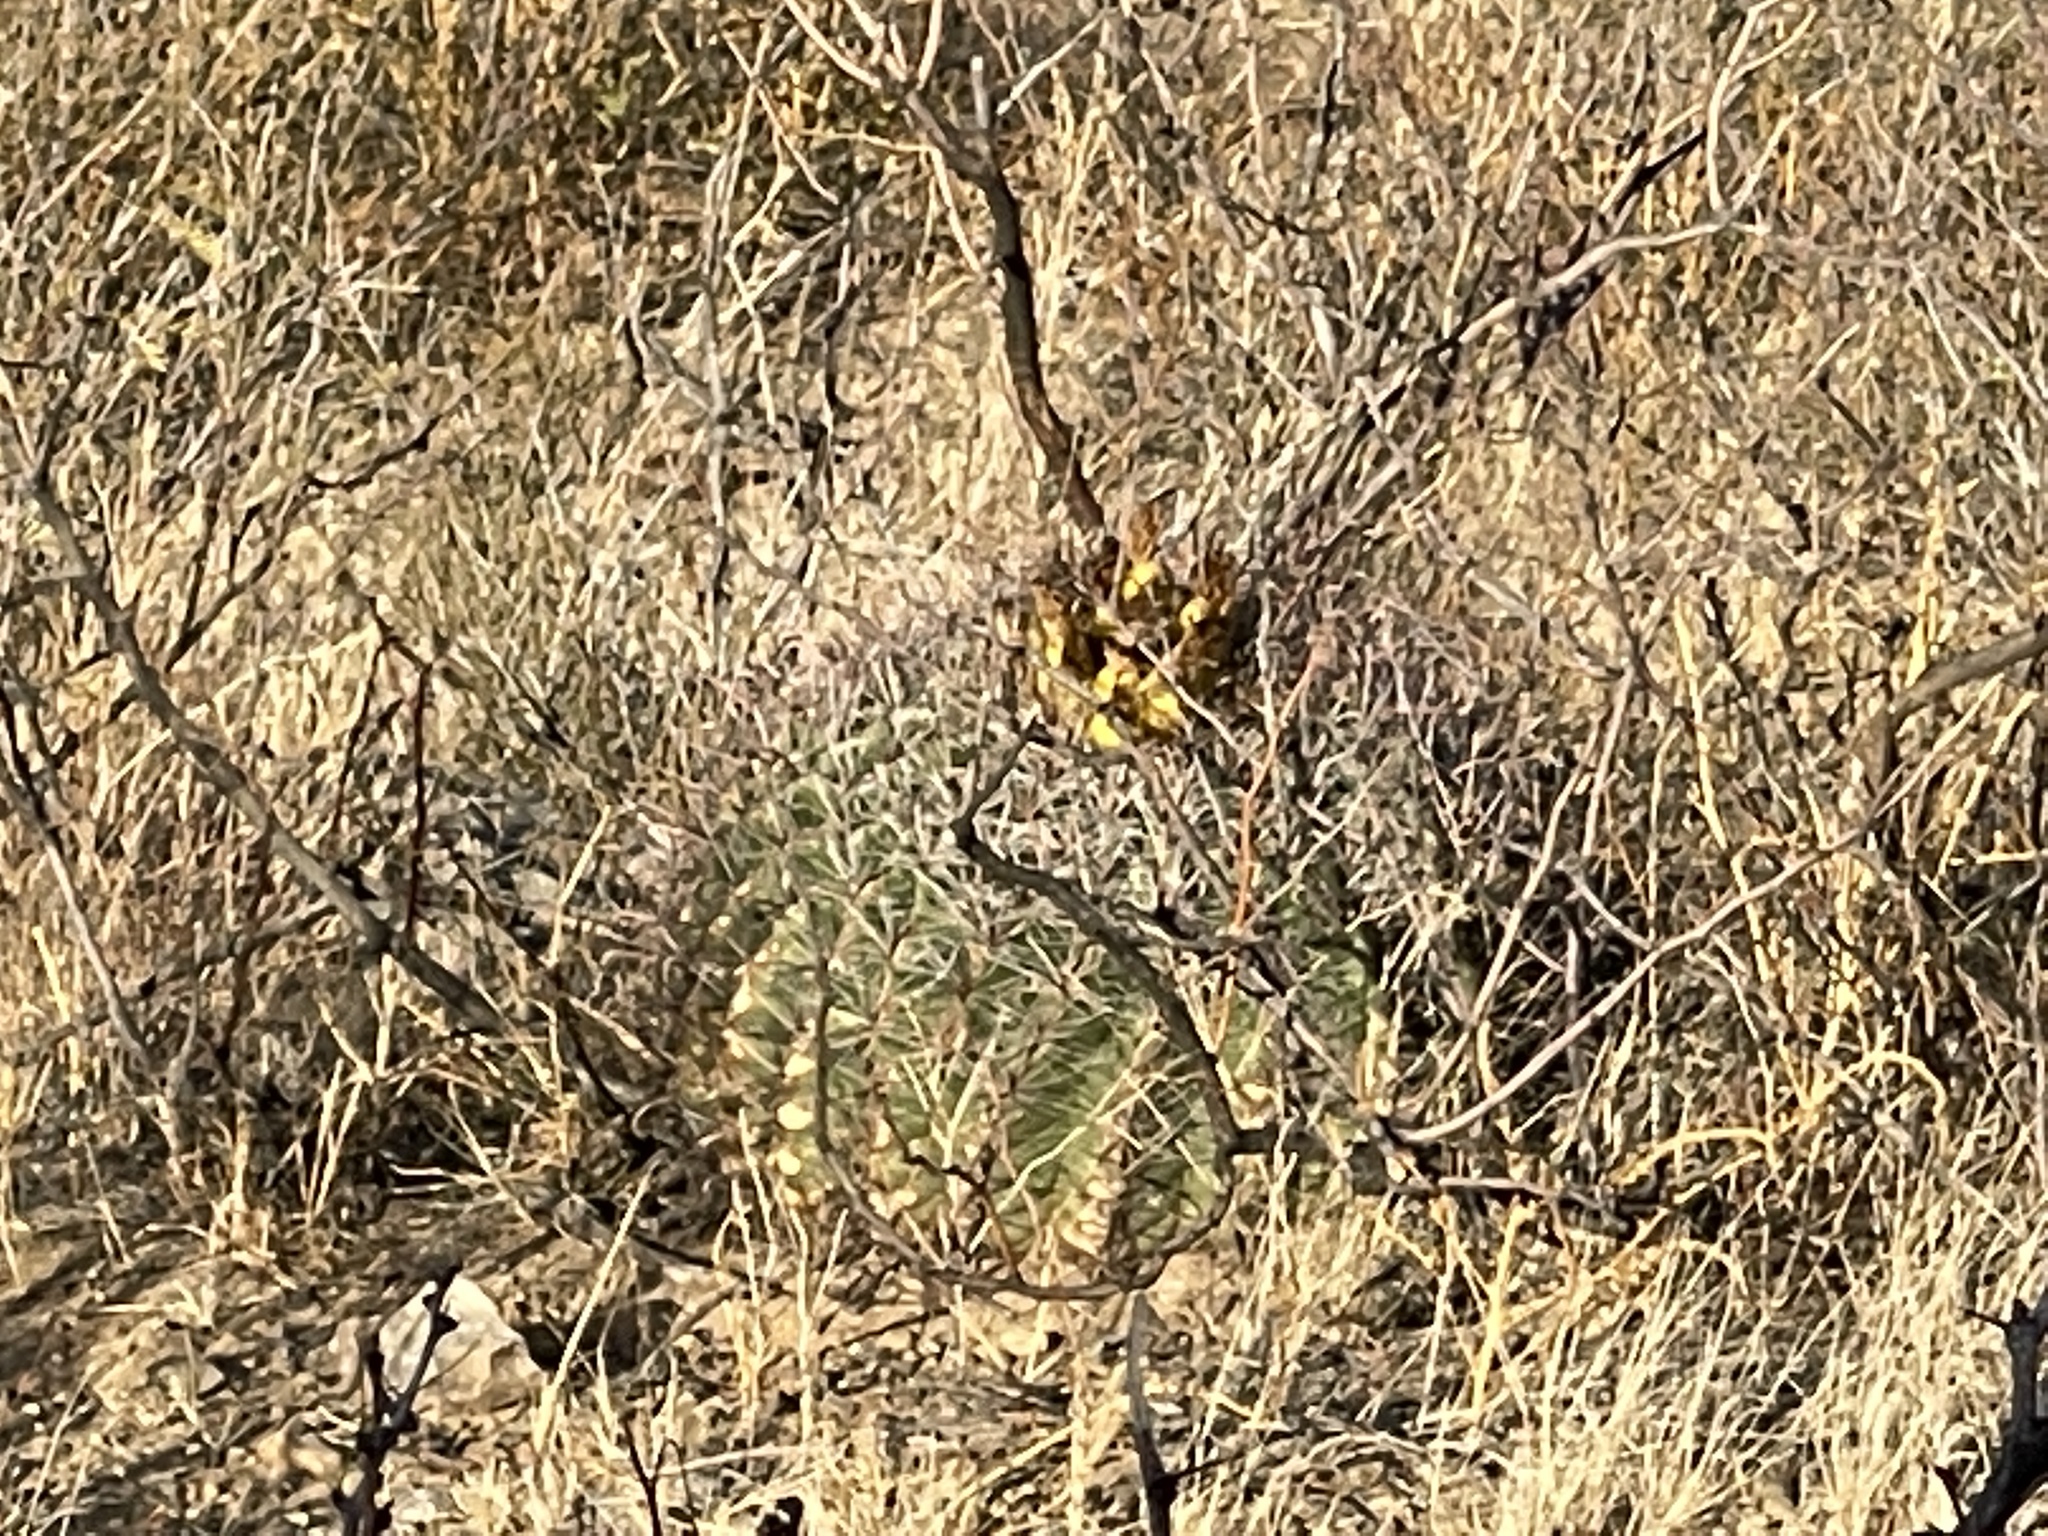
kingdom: Plantae
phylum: Tracheophyta
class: Magnoliopsida
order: Caryophyllales
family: Cactaceae
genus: Ferocactus
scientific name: Ferocactus wislizeni
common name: Candy barrel cactus
